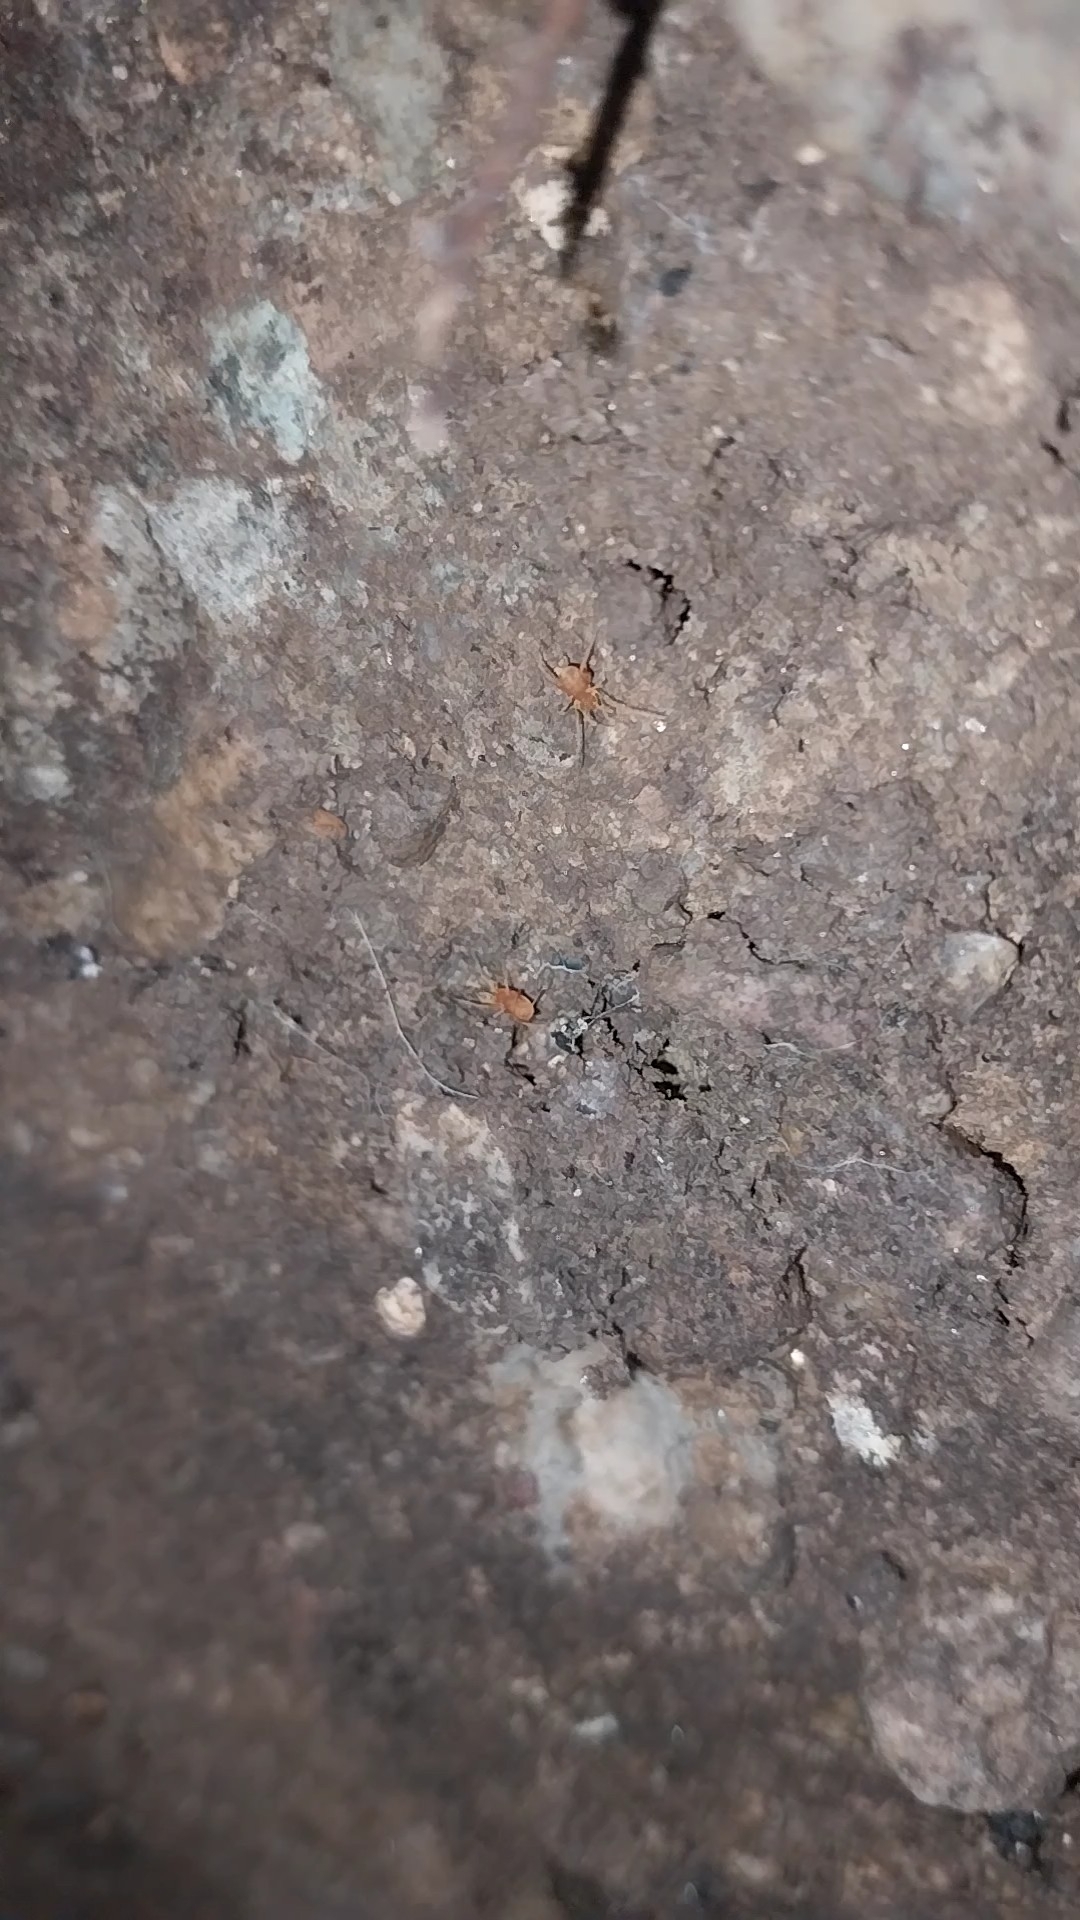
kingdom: Animalia
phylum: Arthropoda
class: Arachnida
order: Opiliones
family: Phalangodidae
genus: Scotolemon
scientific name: Scotolemon doriae
